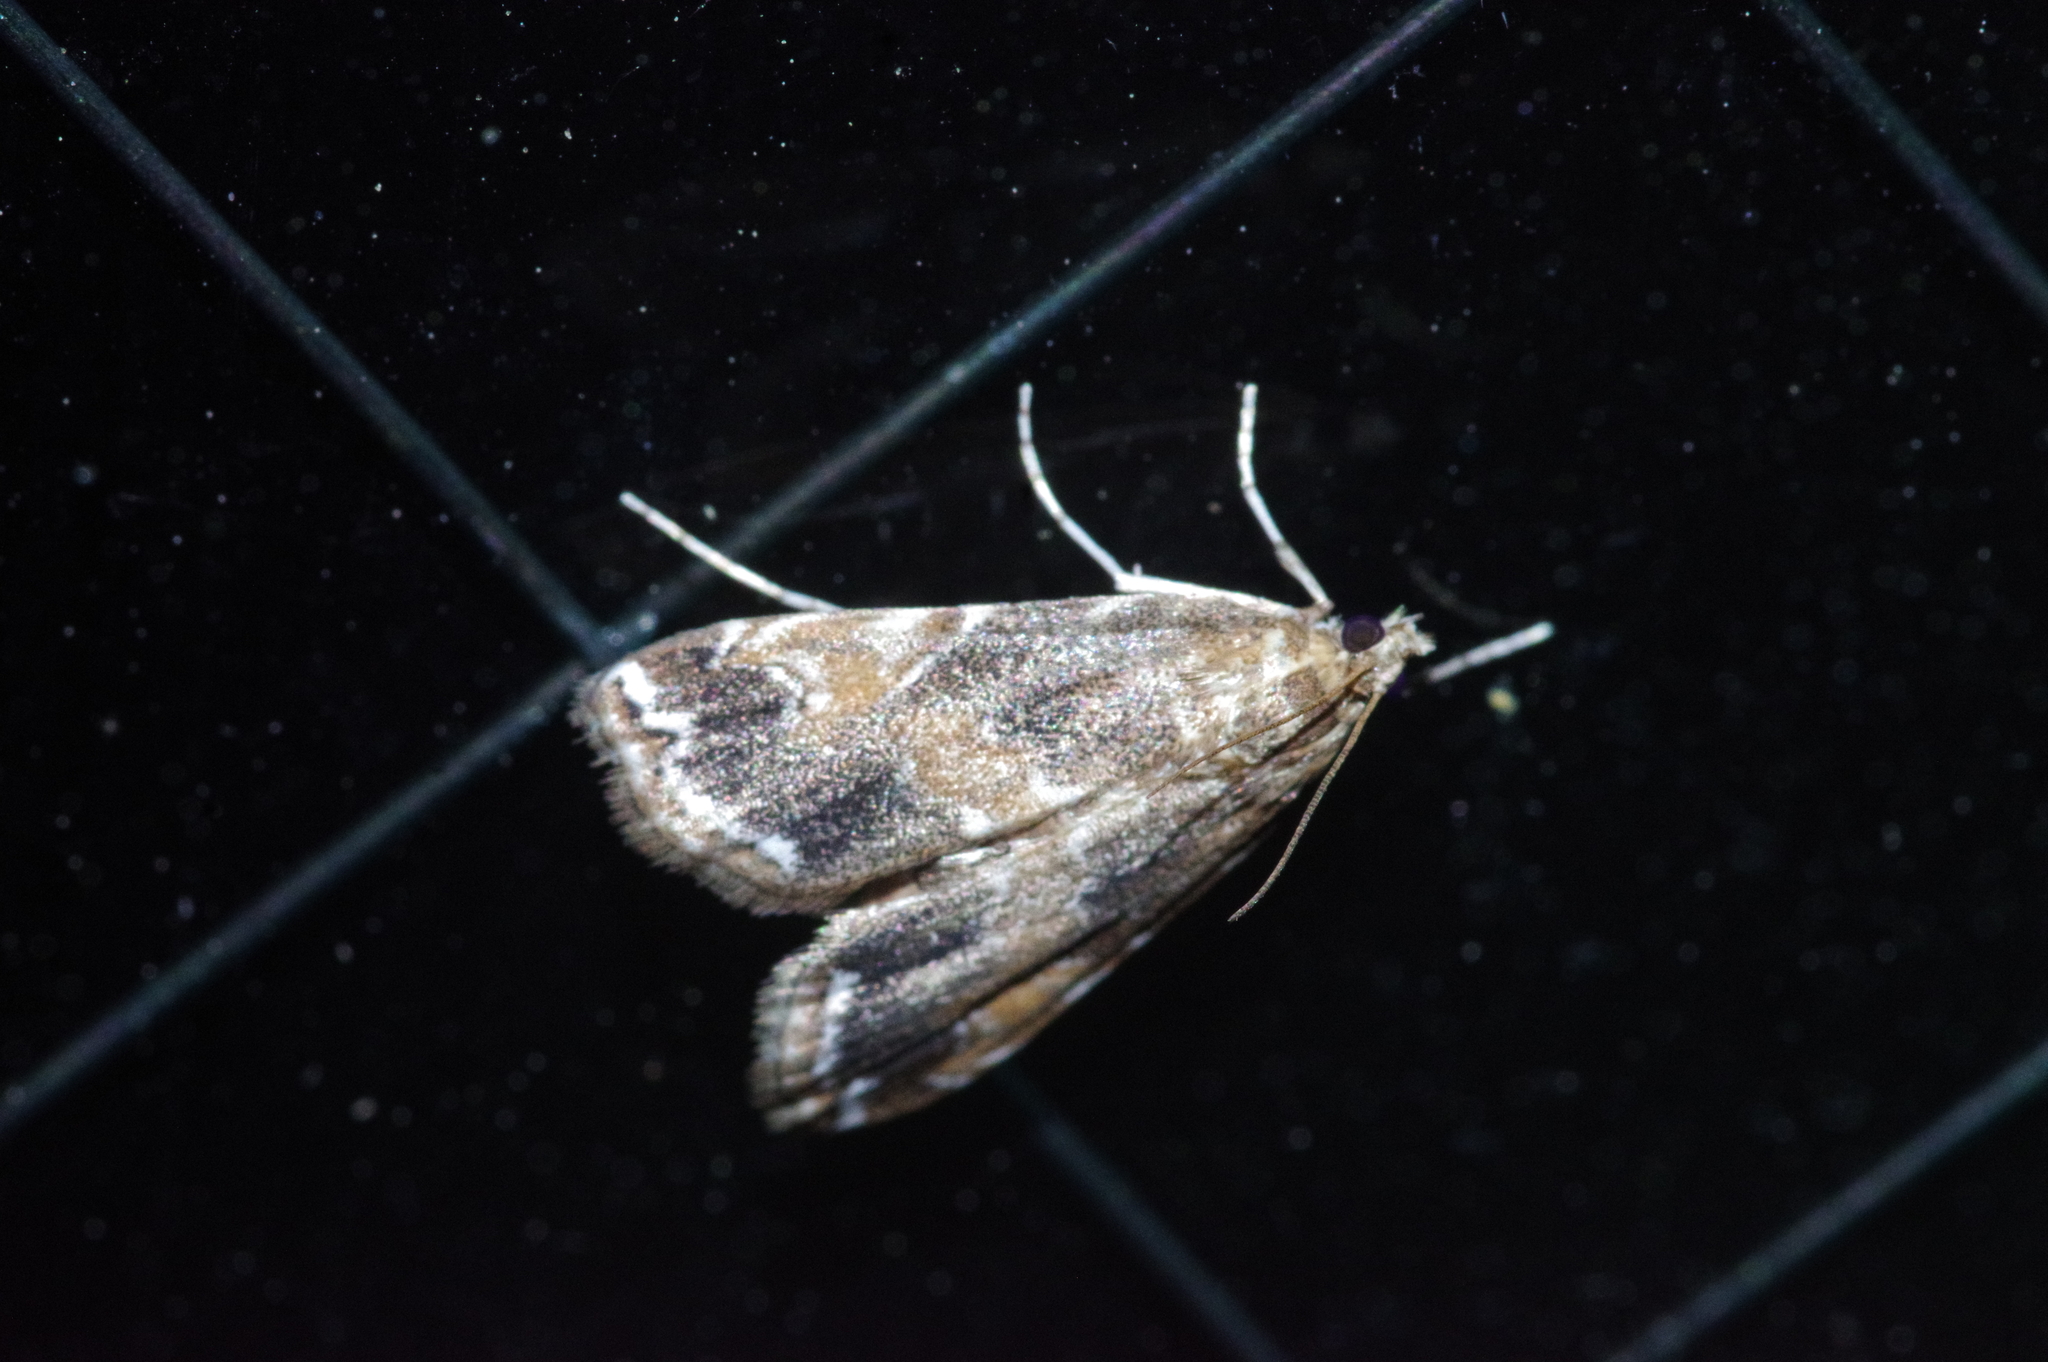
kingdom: Animalia
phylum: Arthropoda
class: Insecta
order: Lepidoptera
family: Crambidae
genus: Elophila
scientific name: Elophila turbata
